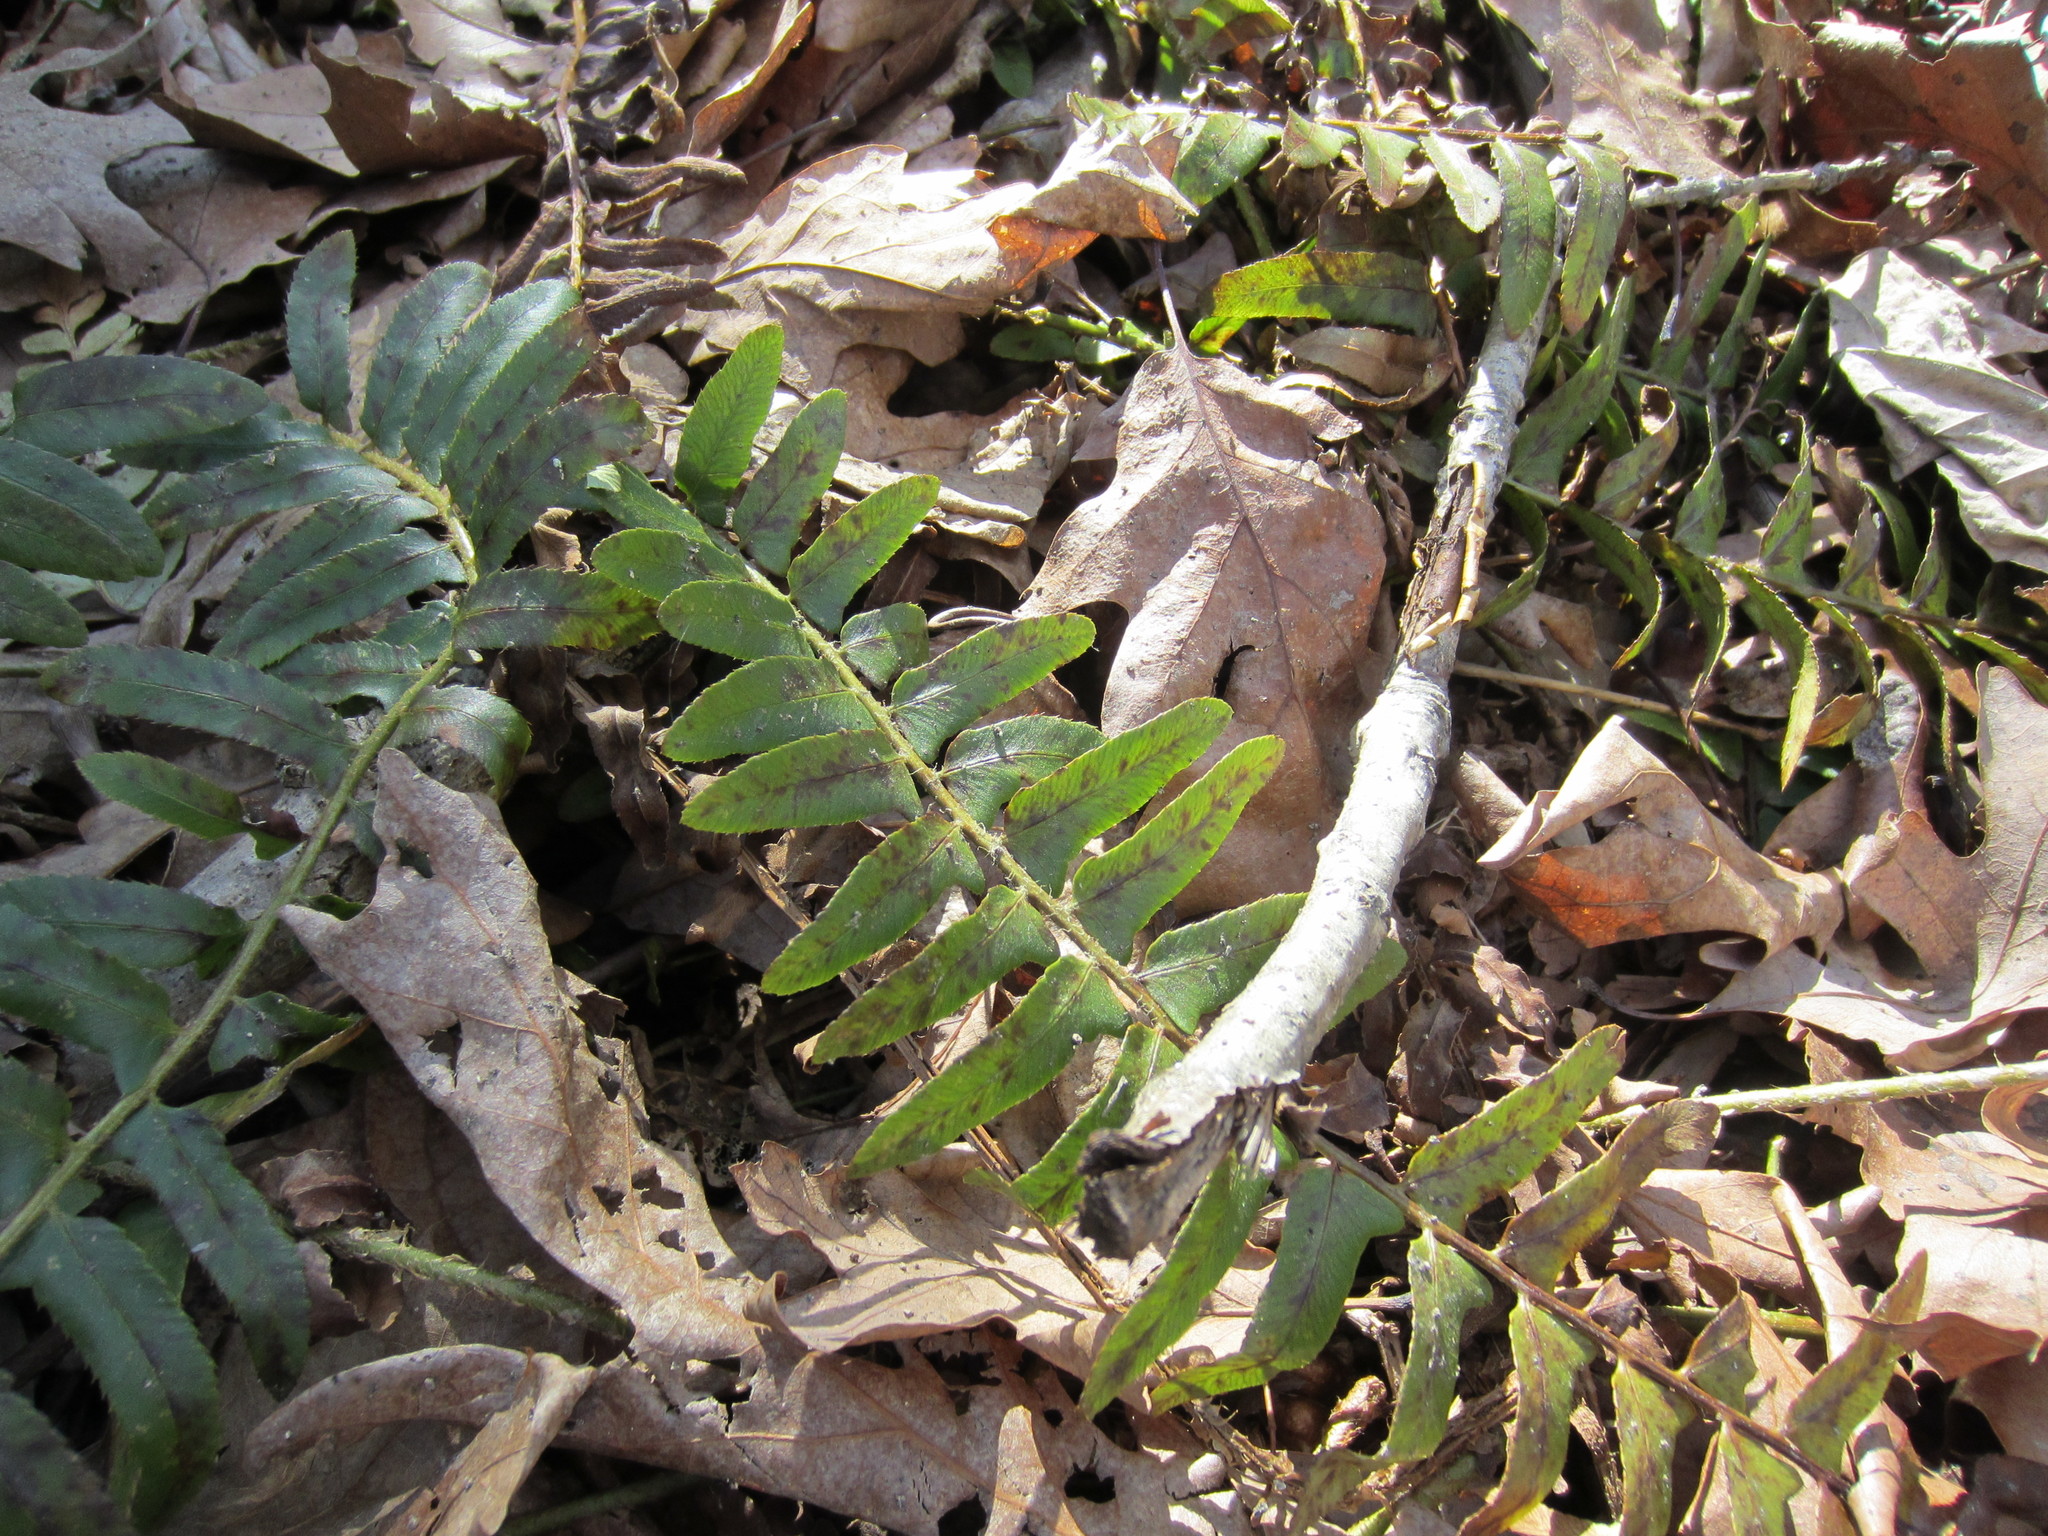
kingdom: Plantae
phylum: Tracheophyta
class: Polypodiopsida
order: Polypodiales
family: Dryopteridaceae
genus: Polystichum
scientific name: Polystichum acrostichoides
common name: Christmas fern
